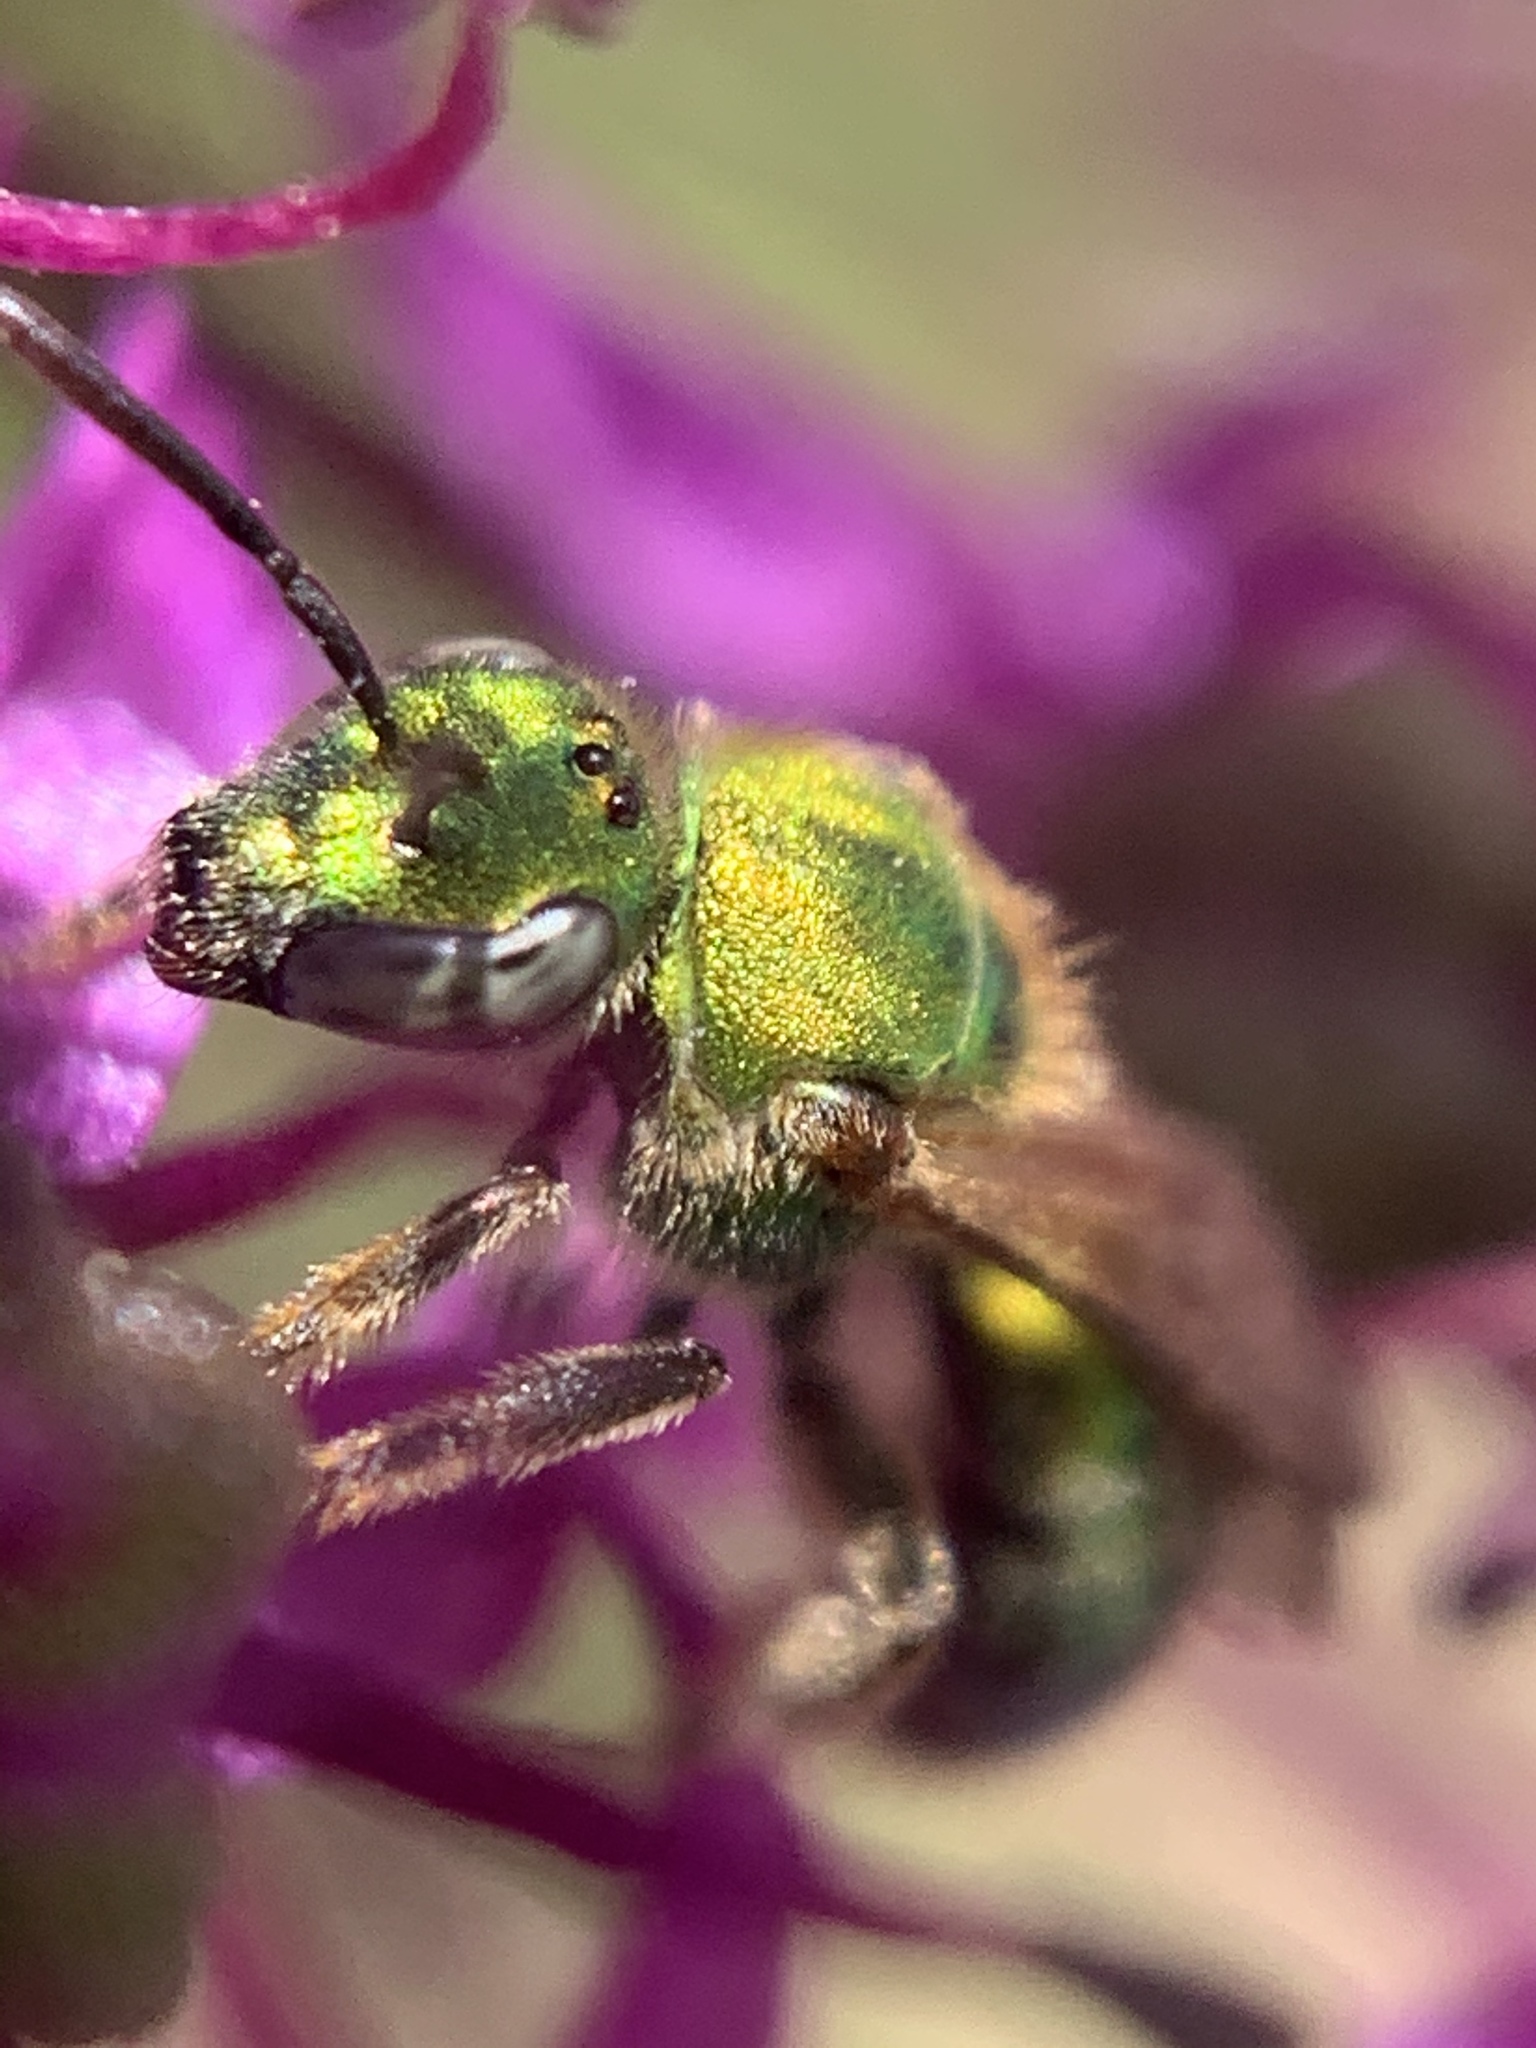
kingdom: Animalia
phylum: Arthropoda
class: Insecta
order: Hymenoptera
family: Halictidae
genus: Augochlorella
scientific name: Augochlorella aurata
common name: Golden sweat bee
